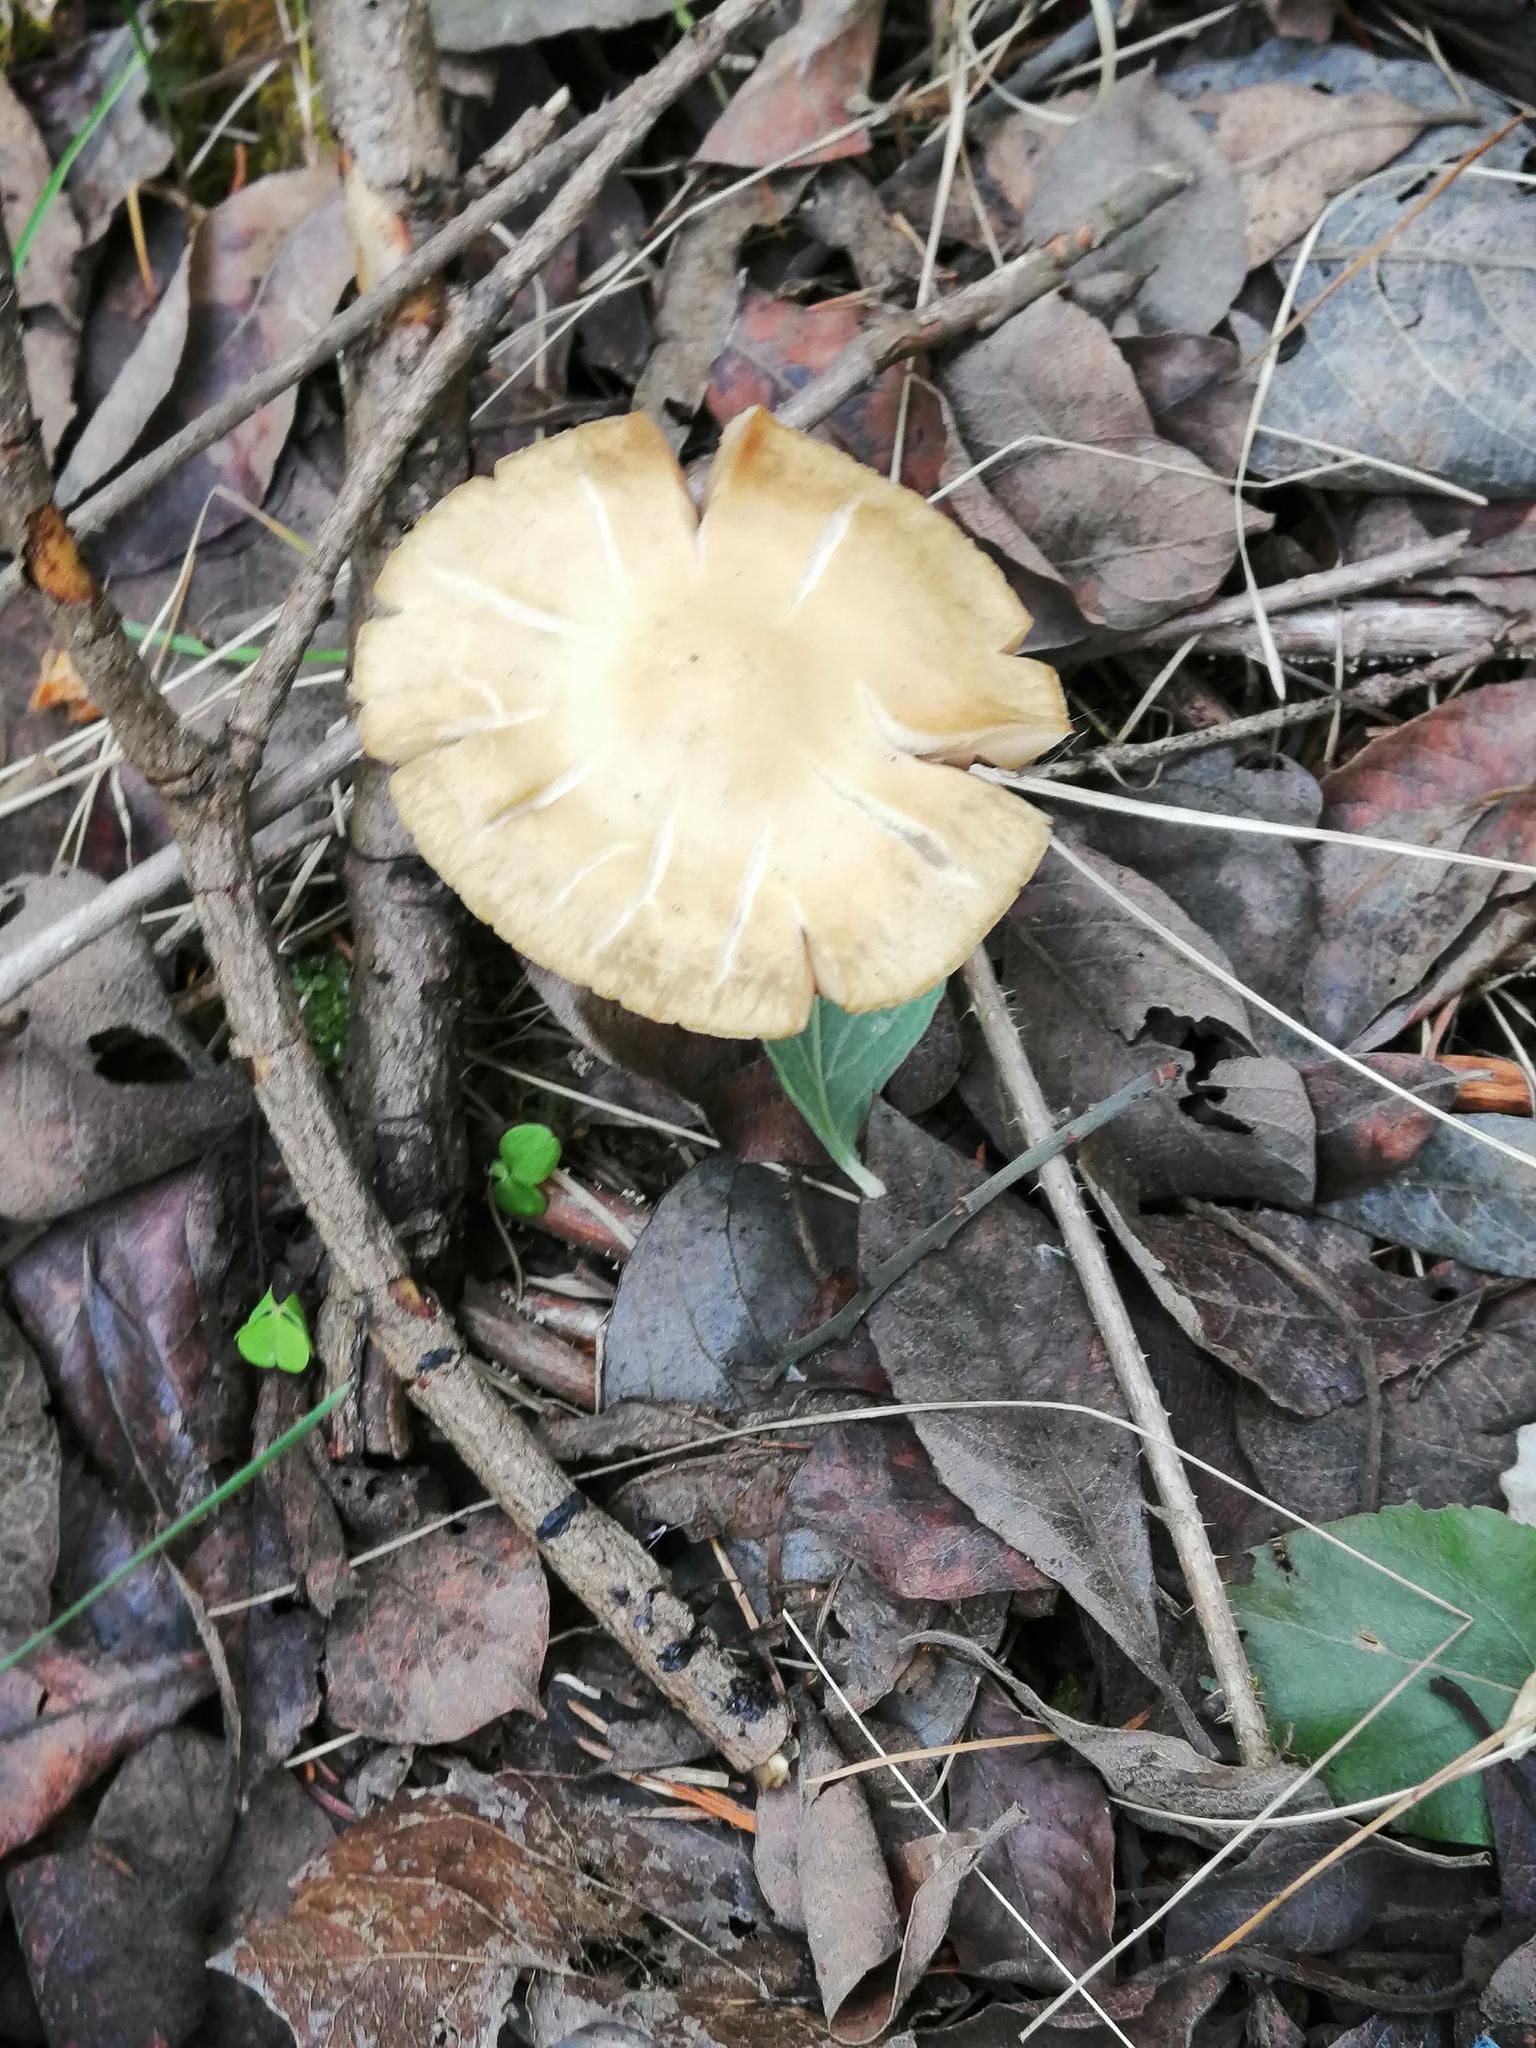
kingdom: Fungi
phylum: Basidiomycota
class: Agaricomycetes
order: Agaricales
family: Strophariaceae
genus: Agrocybe
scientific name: Agrocybe praecox
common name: Spring fieldcap
